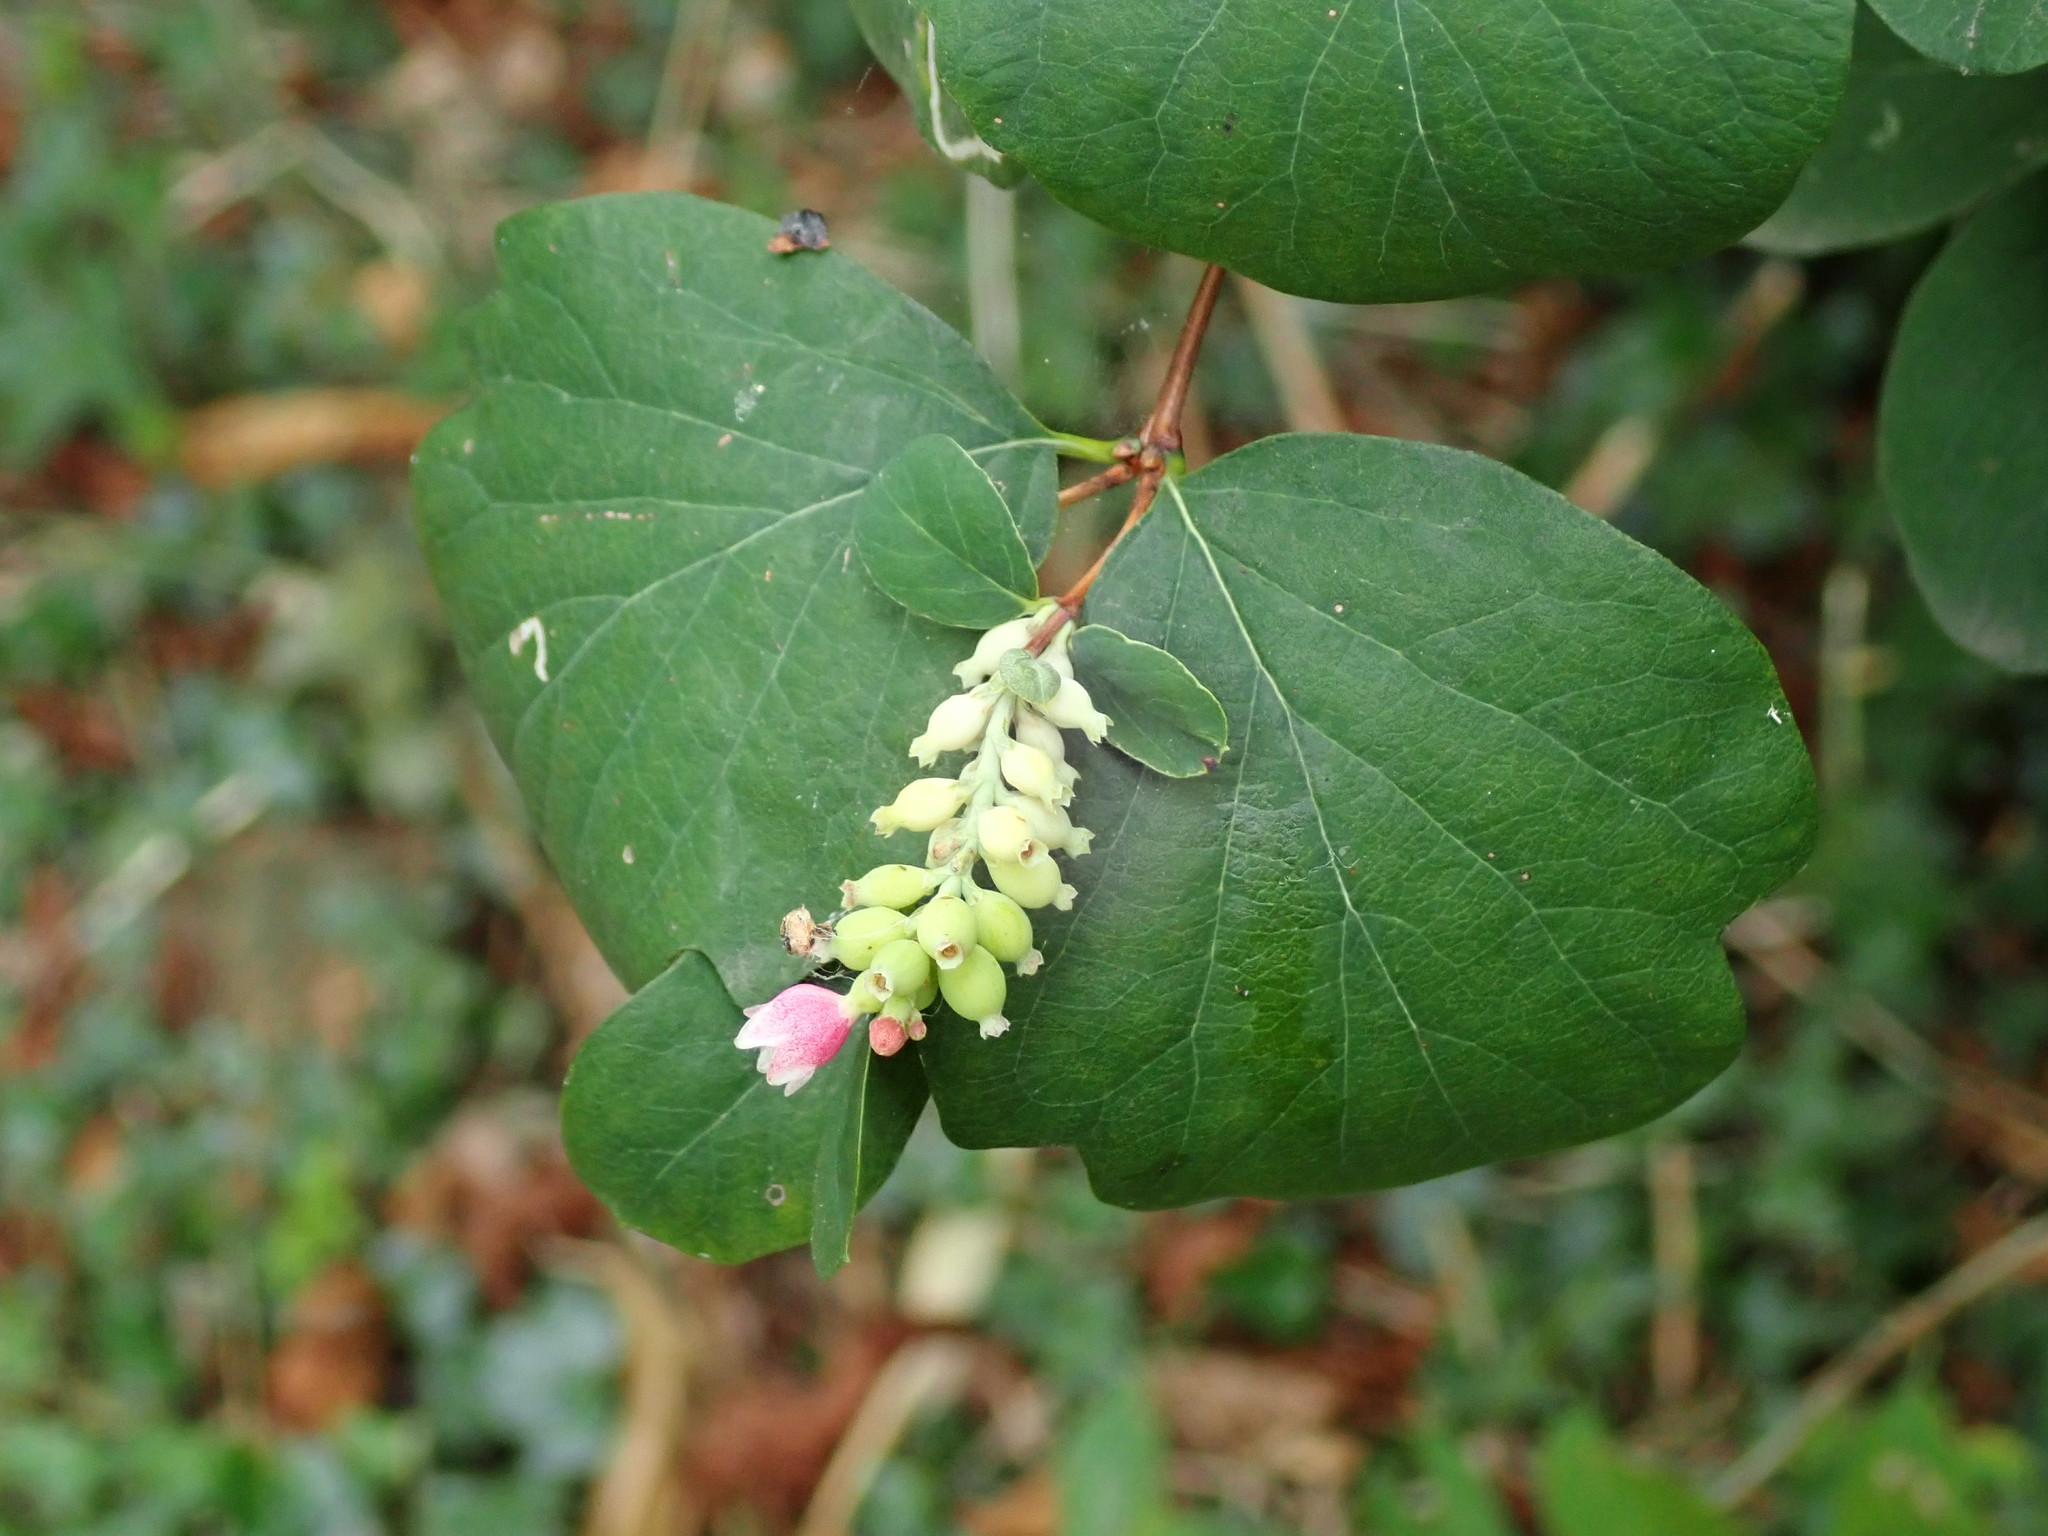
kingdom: Plantae
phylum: Tracheophyta
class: Magnoliopsida
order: Dipsacales
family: Caprifoliaceae
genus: Symphoricarpos
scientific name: Symphoricarpos albus
